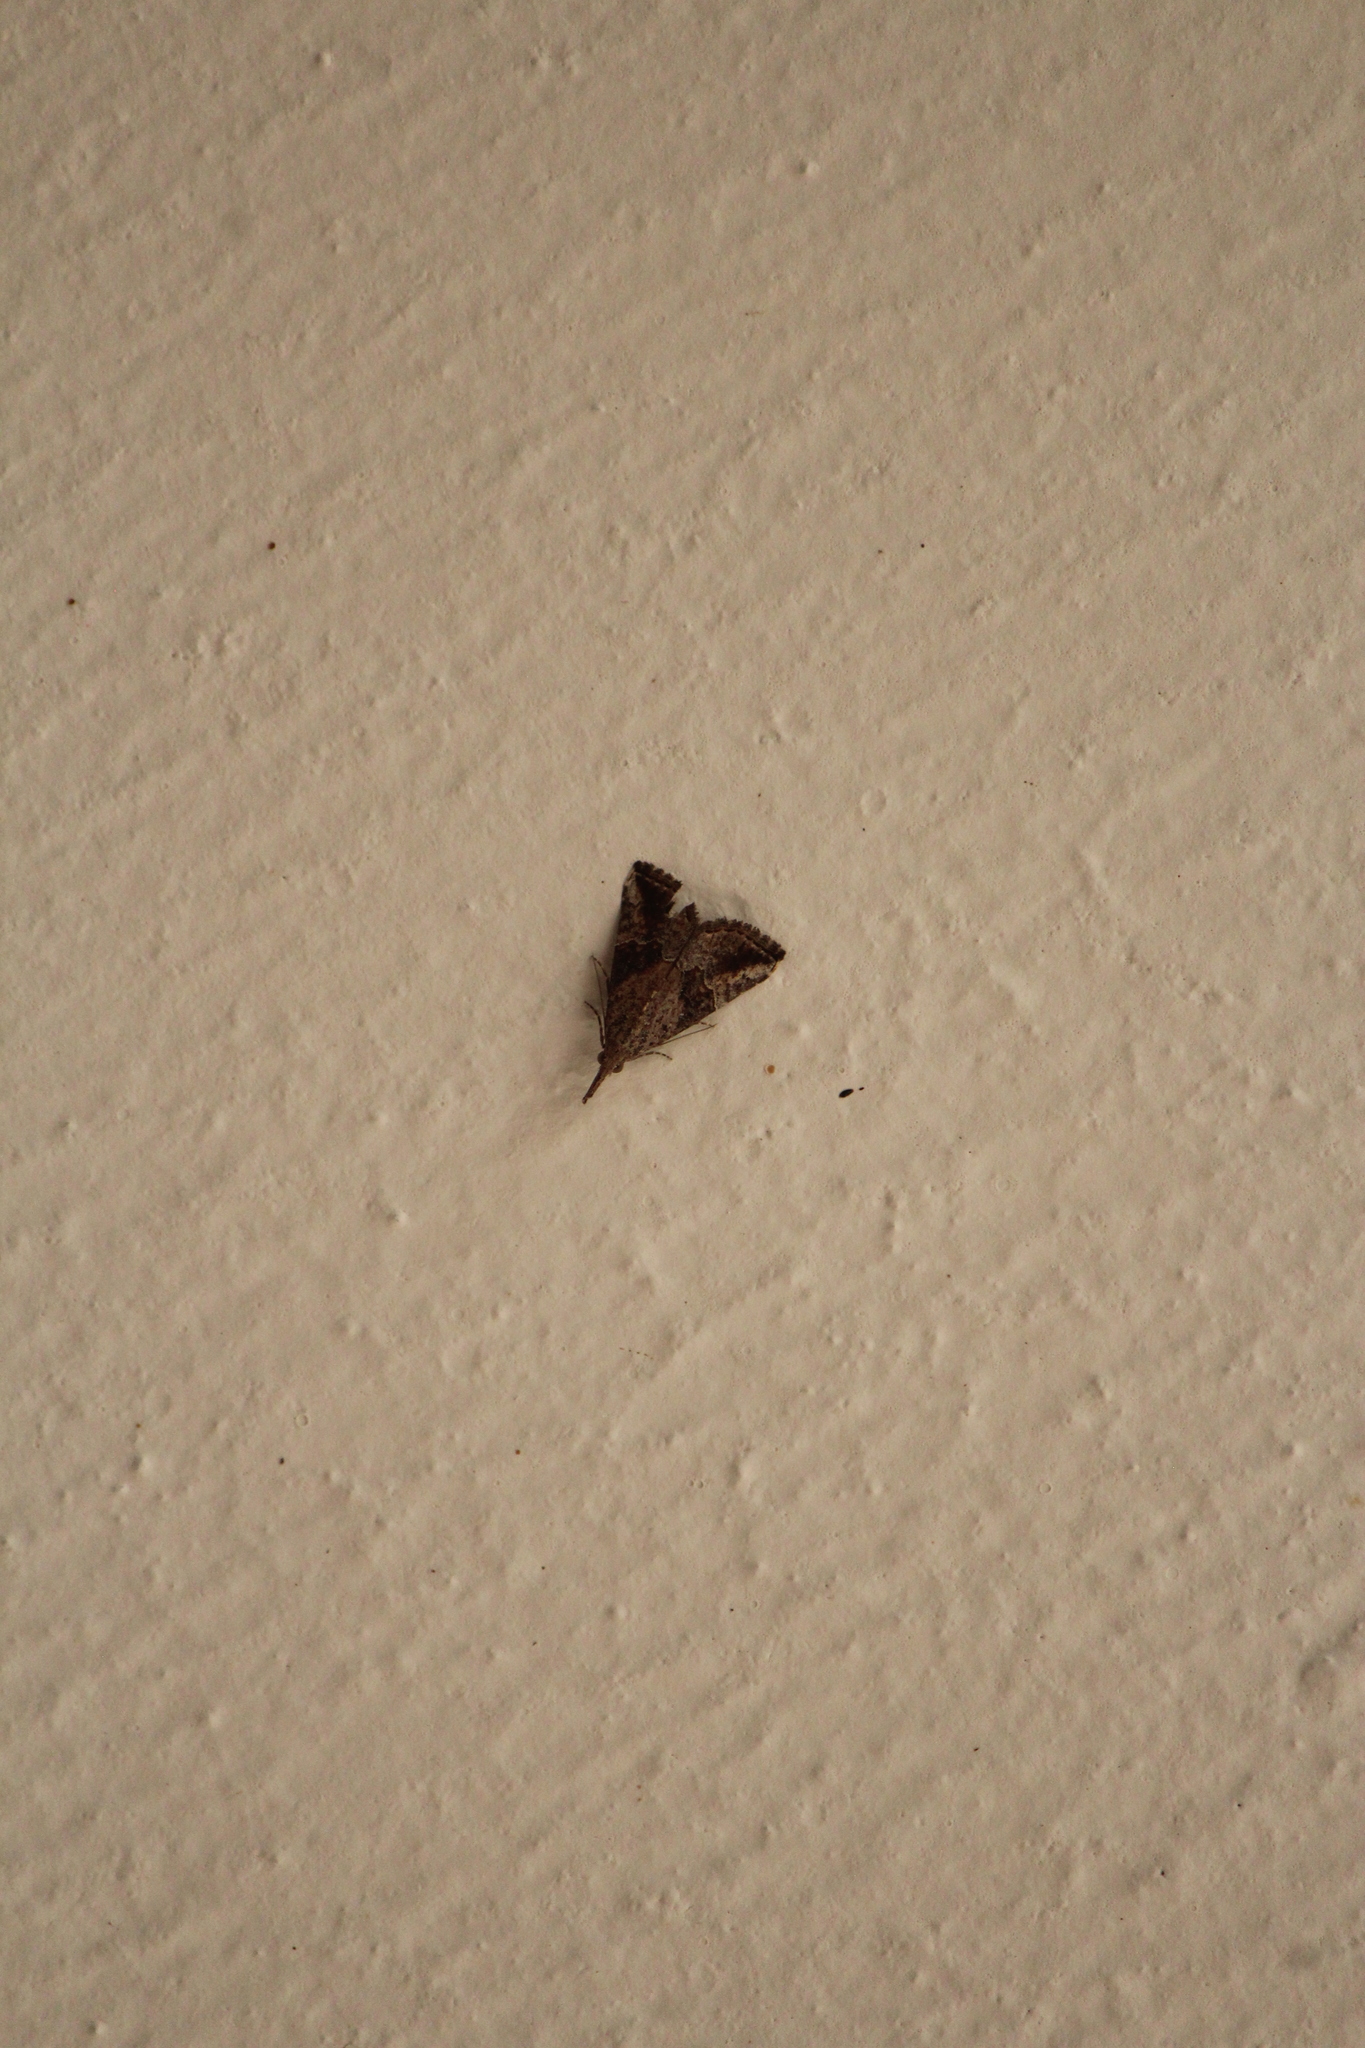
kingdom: Animalia
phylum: Arthropoda
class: Insecta
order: Lepidoptera
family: Erebidae
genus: Hypena
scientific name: Hypena minualis
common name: Sooty snout
